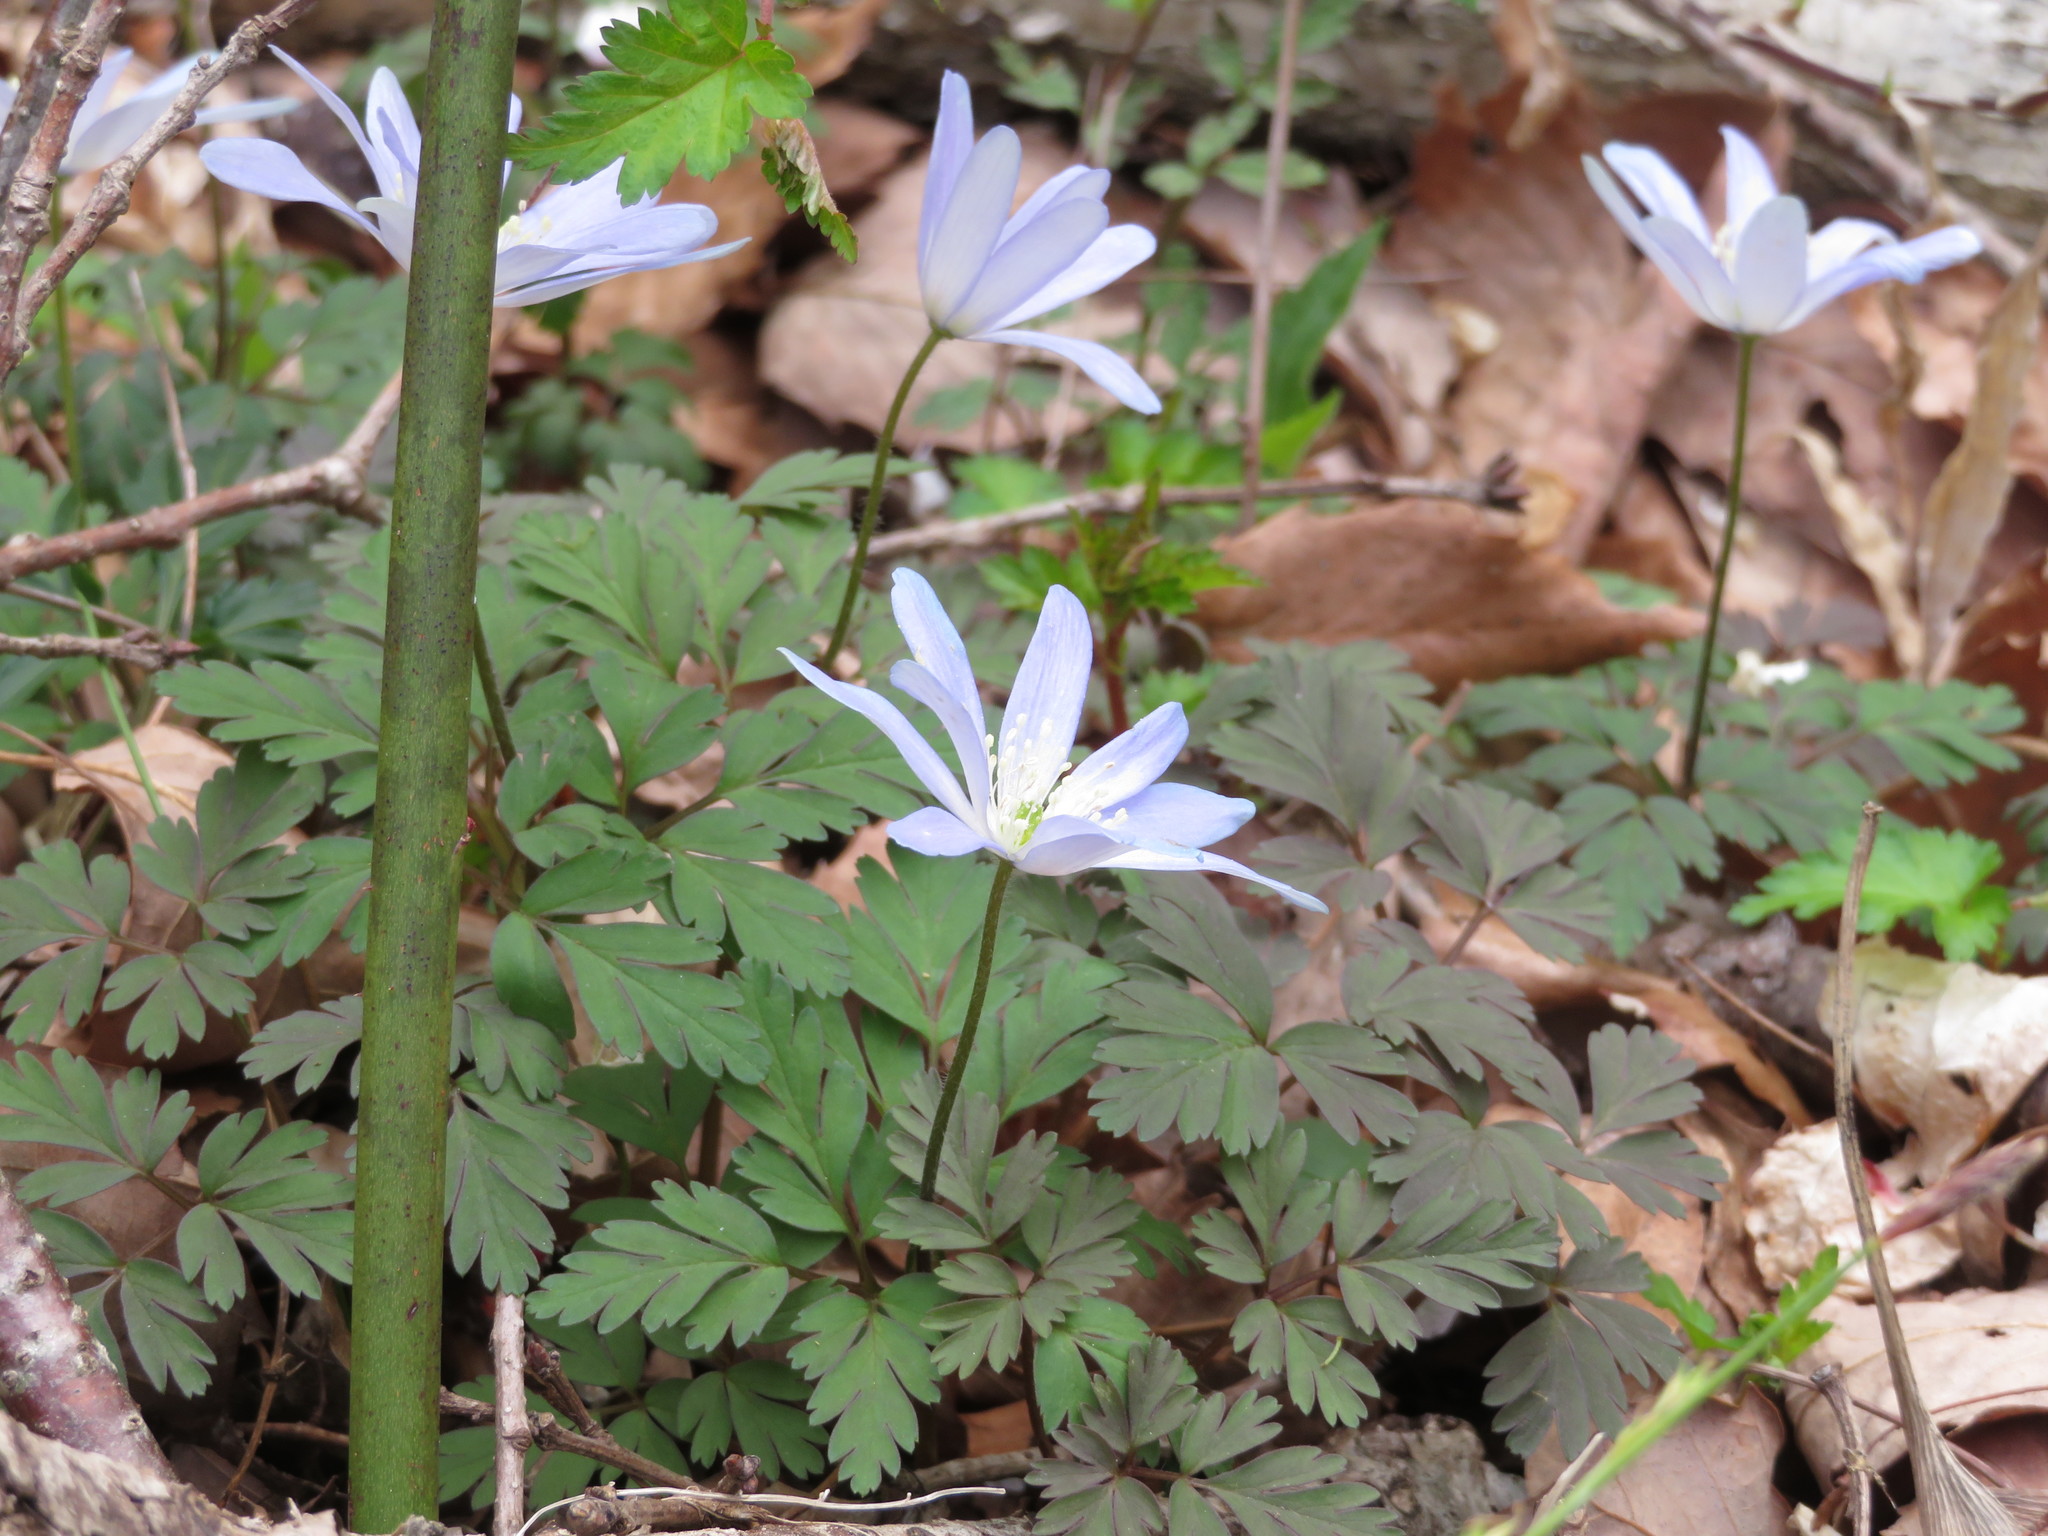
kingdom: Plantae
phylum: Tracheophyta
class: Magnoliopsida
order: Ranunculales
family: Ranunculaceae
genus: Anemone
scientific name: Anemone pseudoaltaica
